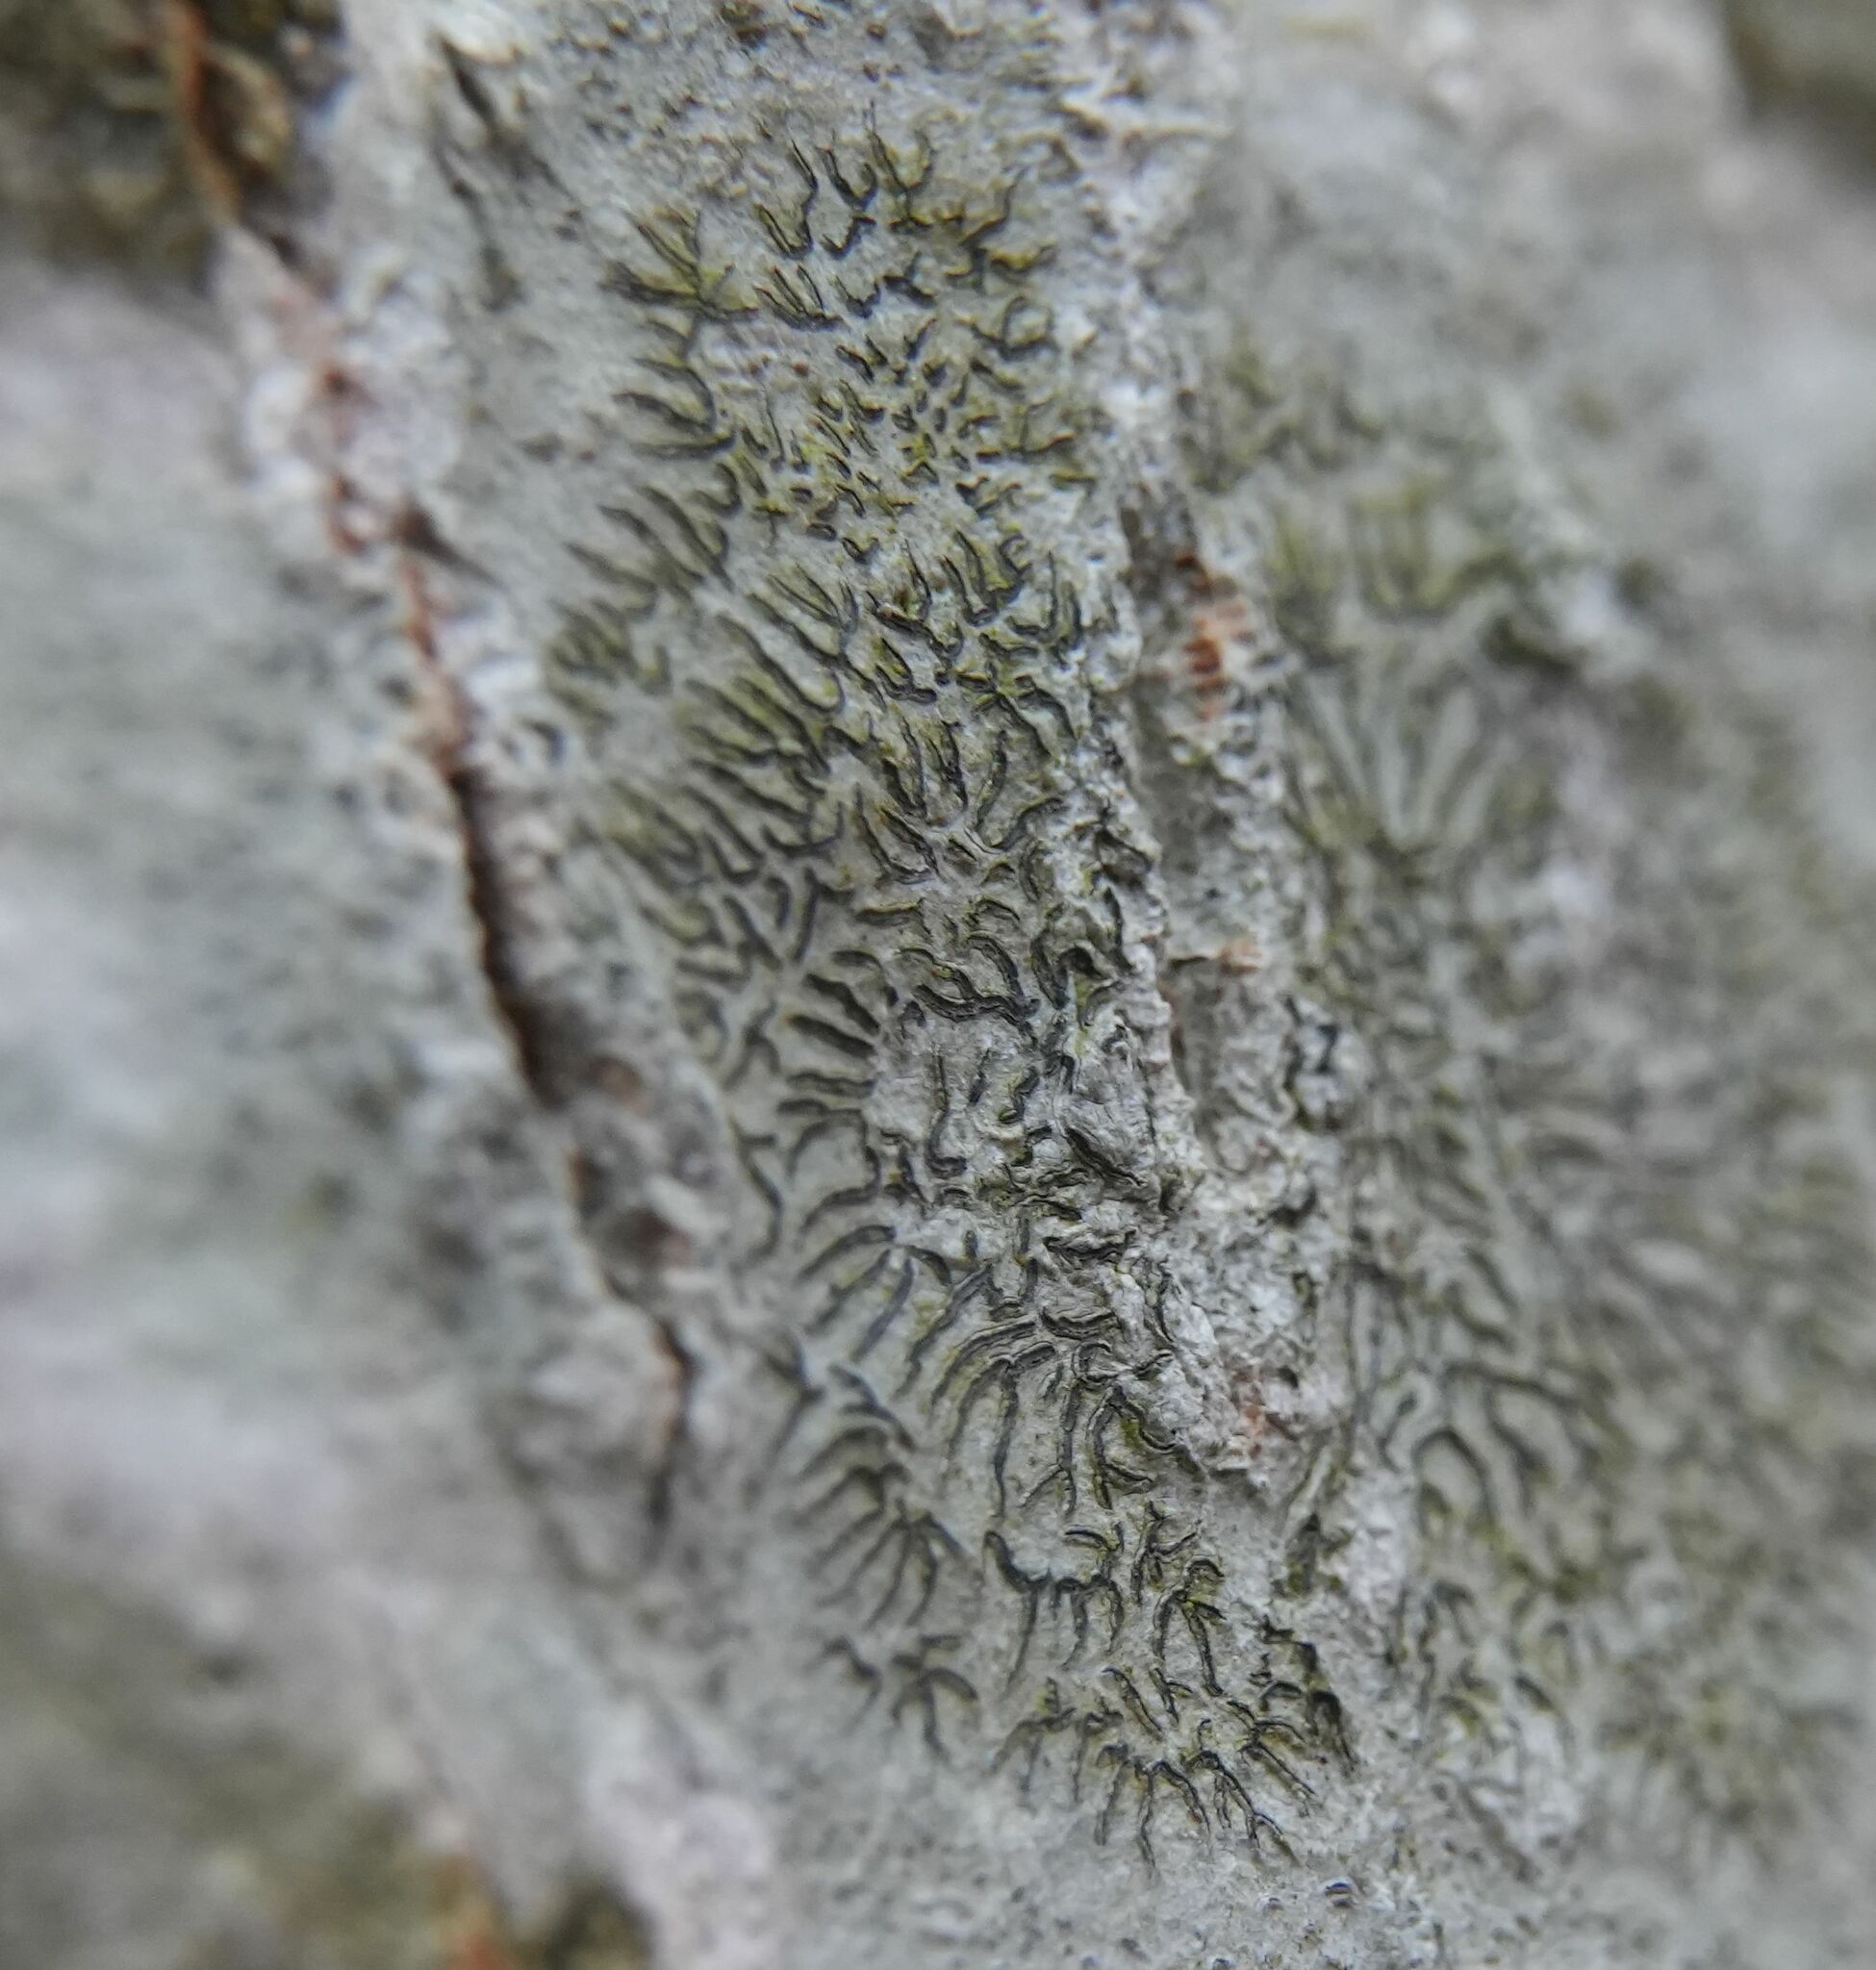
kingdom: Fungi
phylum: Ascomycota
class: Lecanoromycetes
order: Ostropales
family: Graphidaceae
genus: Graphis
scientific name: Graphis scripta
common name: Script lichen
